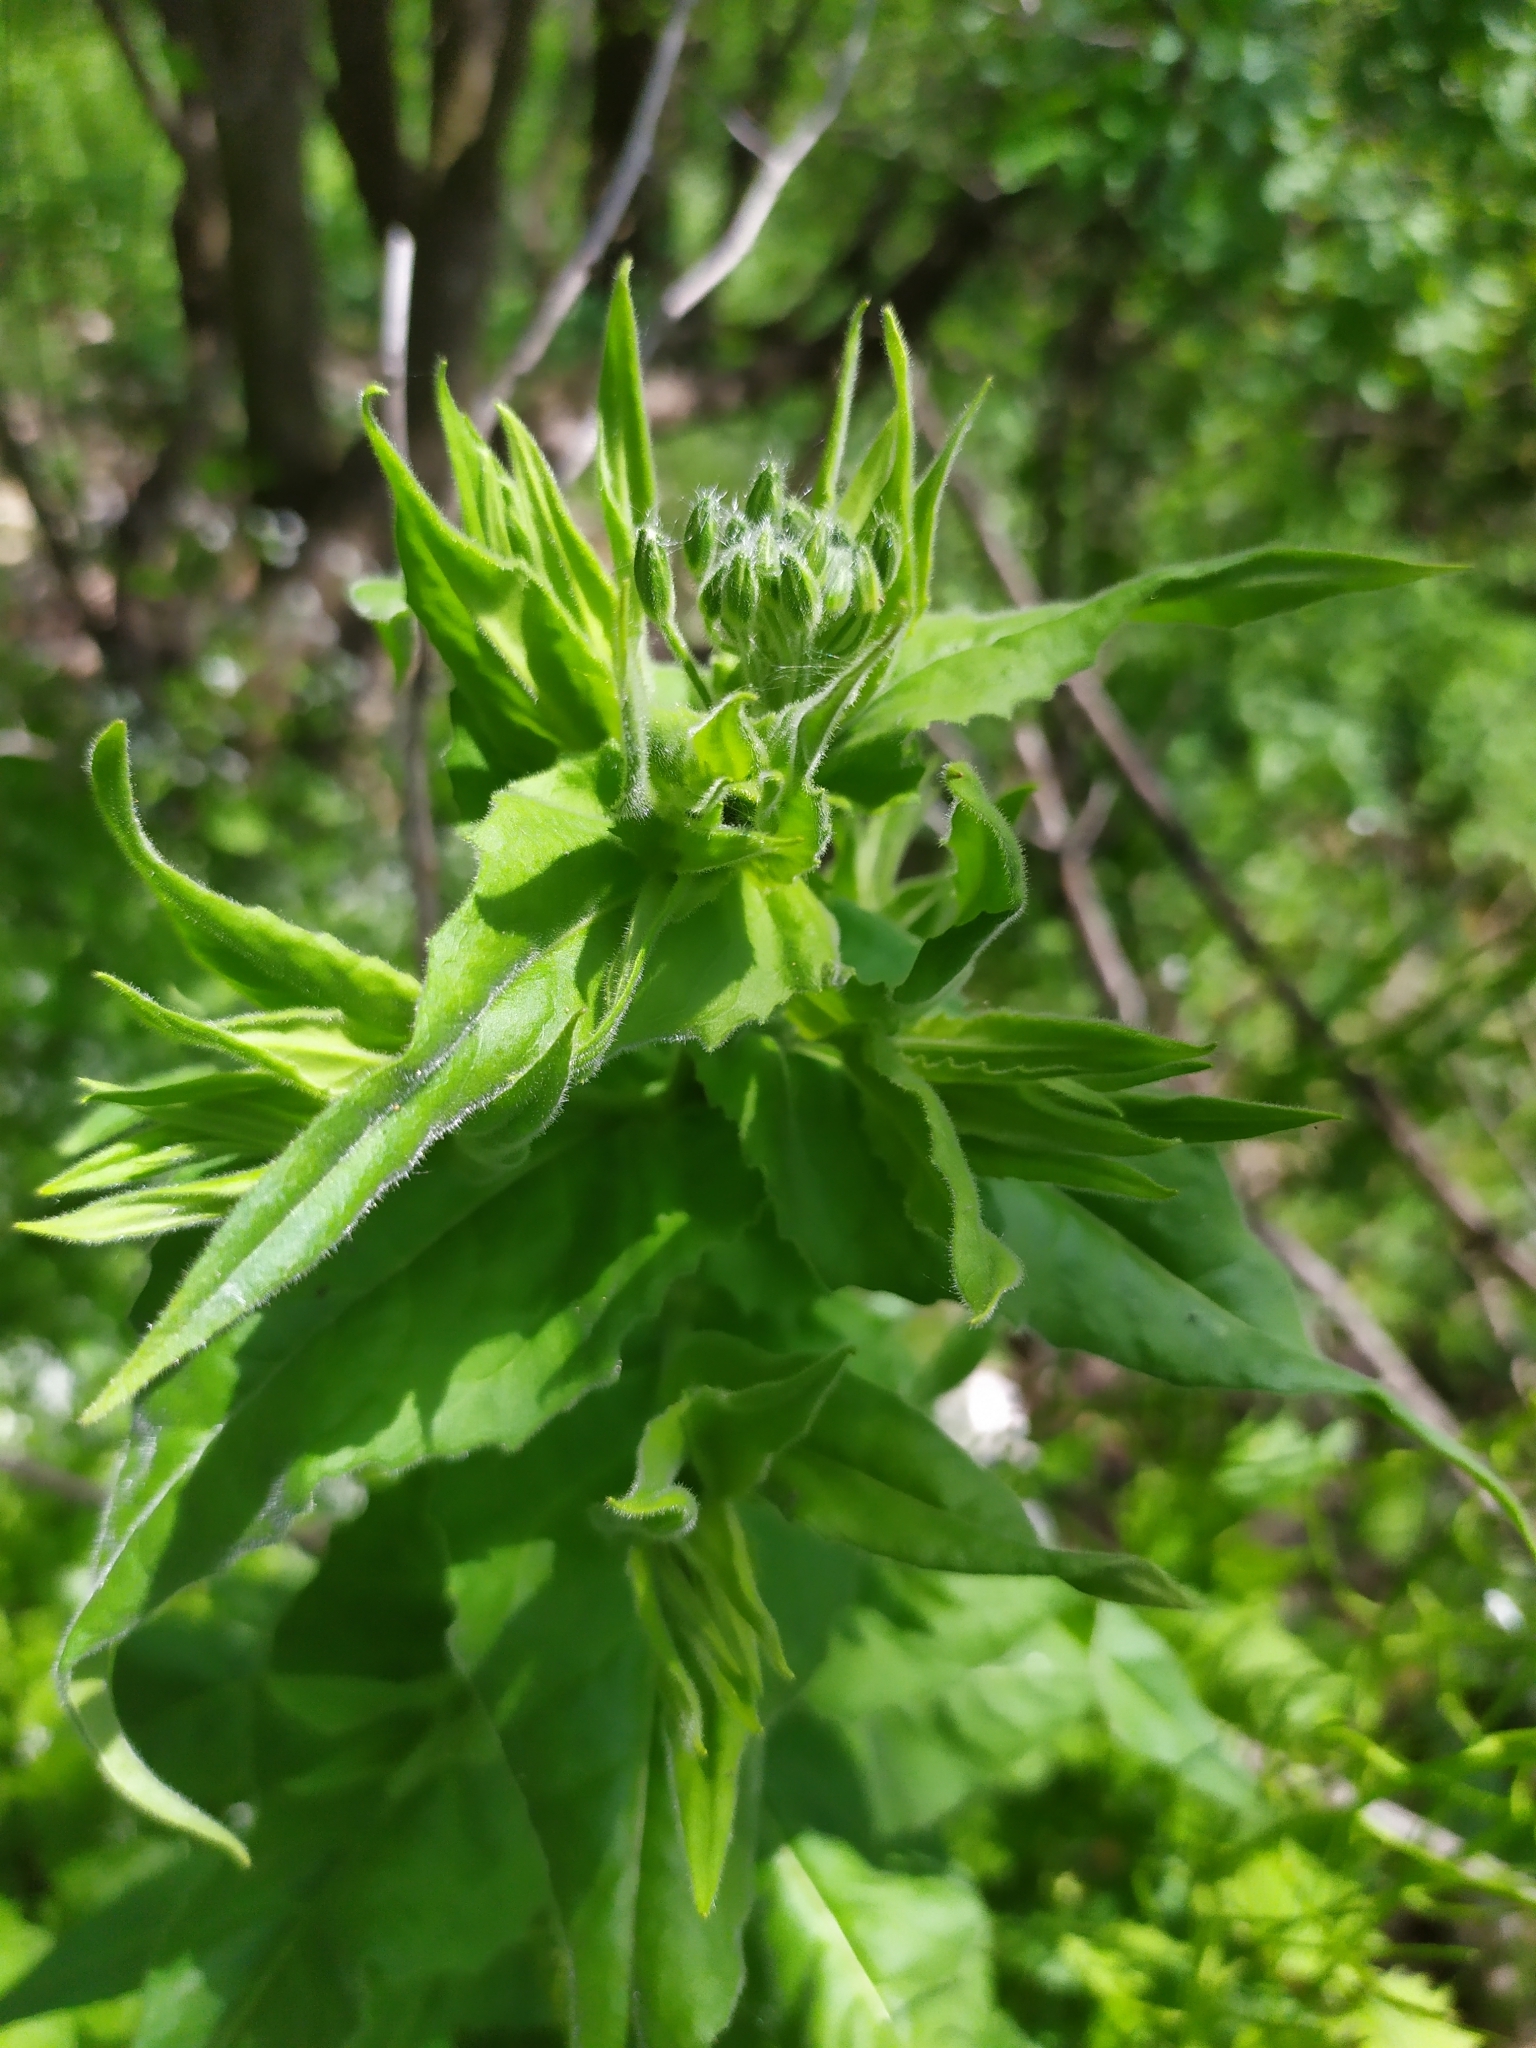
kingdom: Plantae
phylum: Tracheophyta
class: Magnoliopsida
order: Brassicales
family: Brassicaceae
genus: Hesperis
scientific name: Hesperis sylvestris
